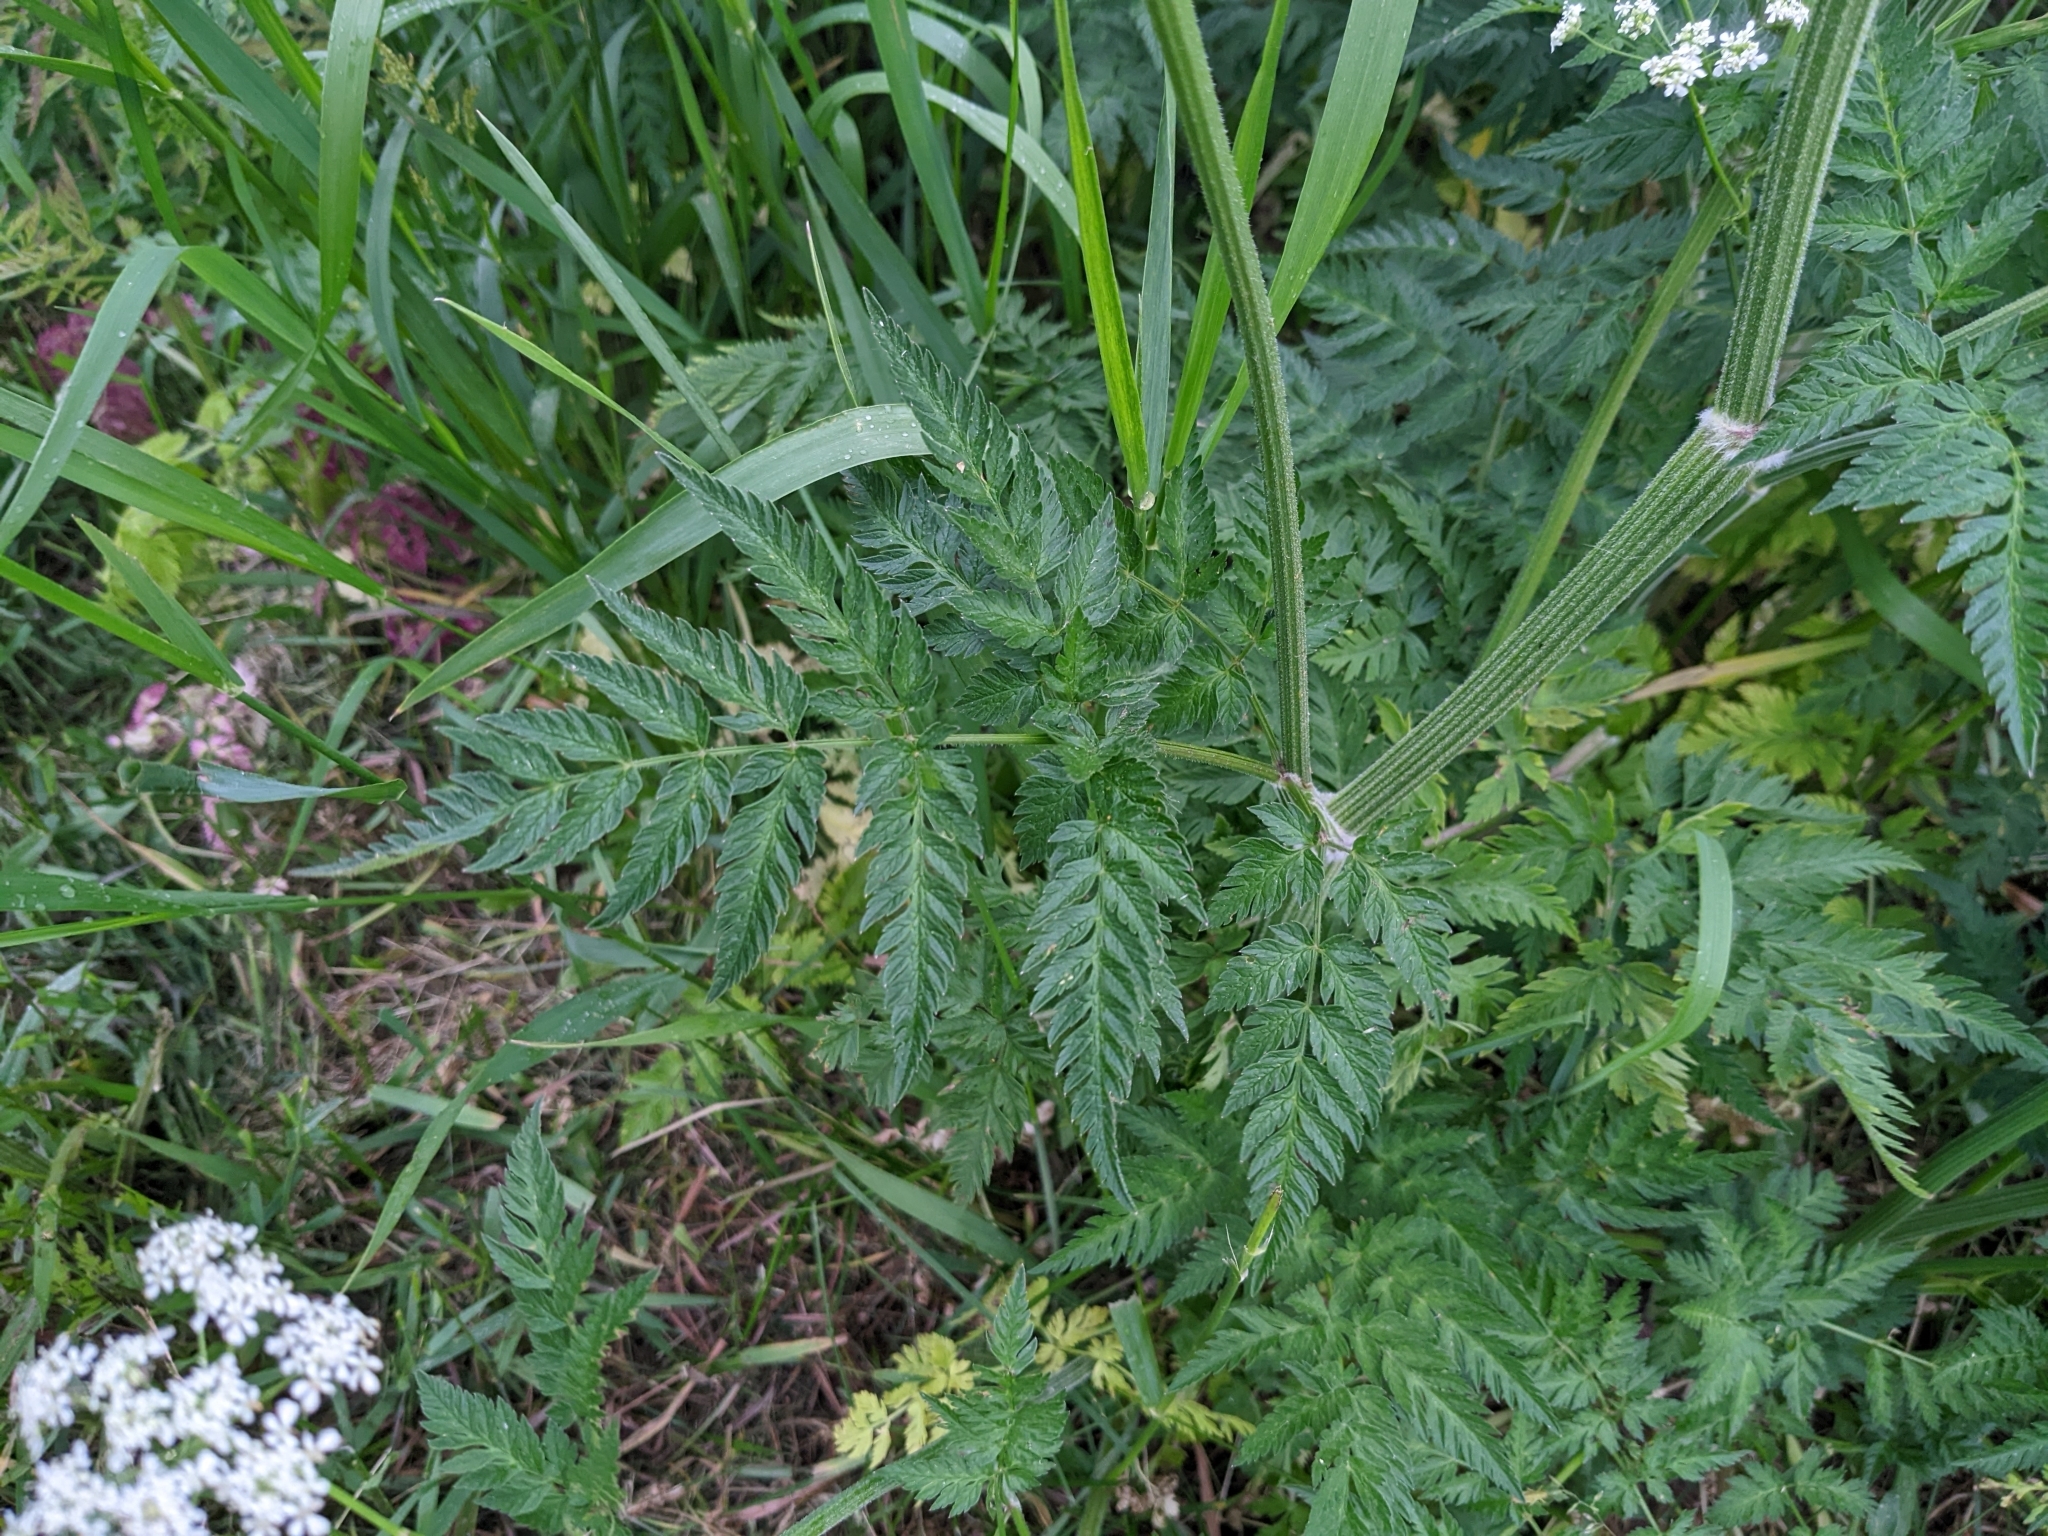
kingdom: Plantae
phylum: Tracheophyta
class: Magnoliopsida
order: Apiales
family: Apiaceae
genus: Anthriscus
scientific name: Anthriscus sylvestris
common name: Cow parsley
